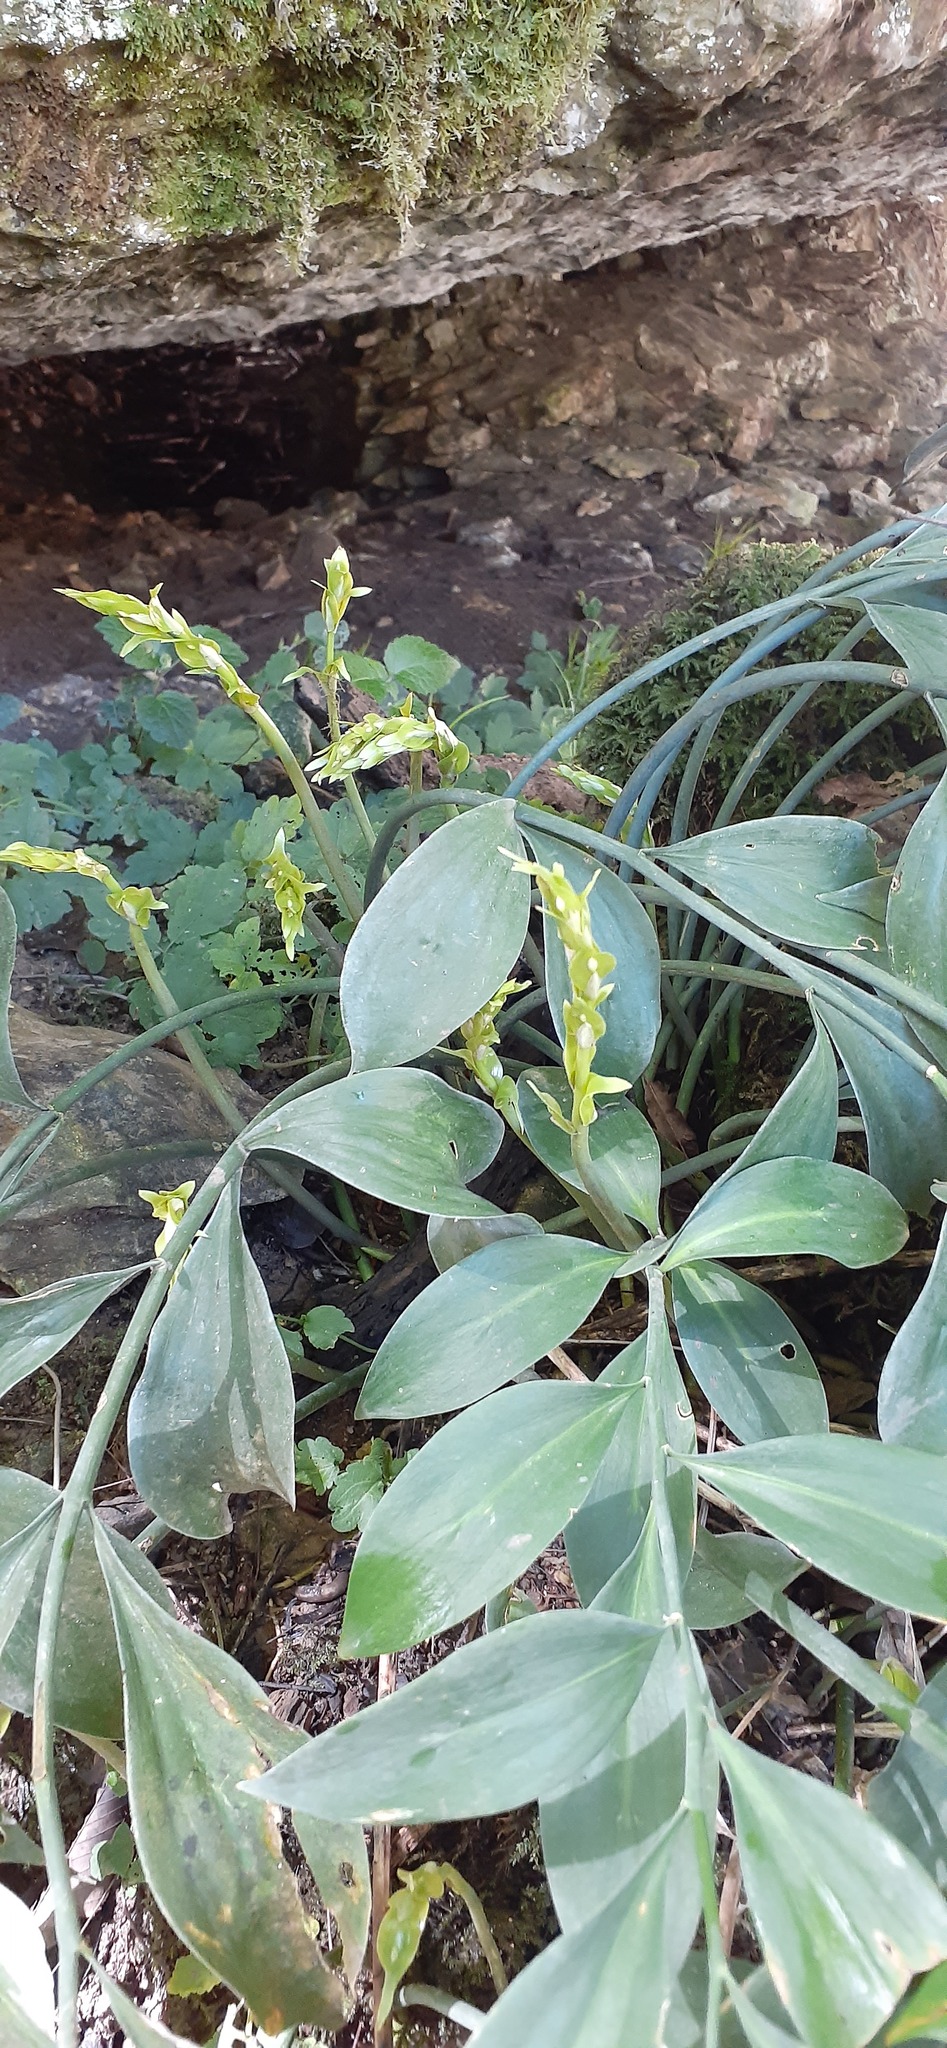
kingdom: Plantae
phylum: Tracheophyta
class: Liliopsida
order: Asparagales
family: Asparagaceae
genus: Ruscus
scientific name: Ruscus colchicus
